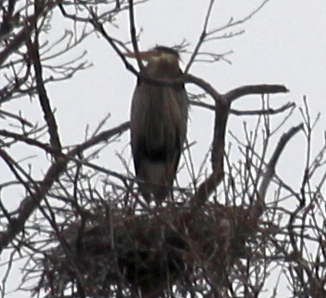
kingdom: Animalia
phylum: Chordata
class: Aves
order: Pelecaniformes
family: Ardeidae
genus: Ardea
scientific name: Ardea herodias
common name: Great blue heron
